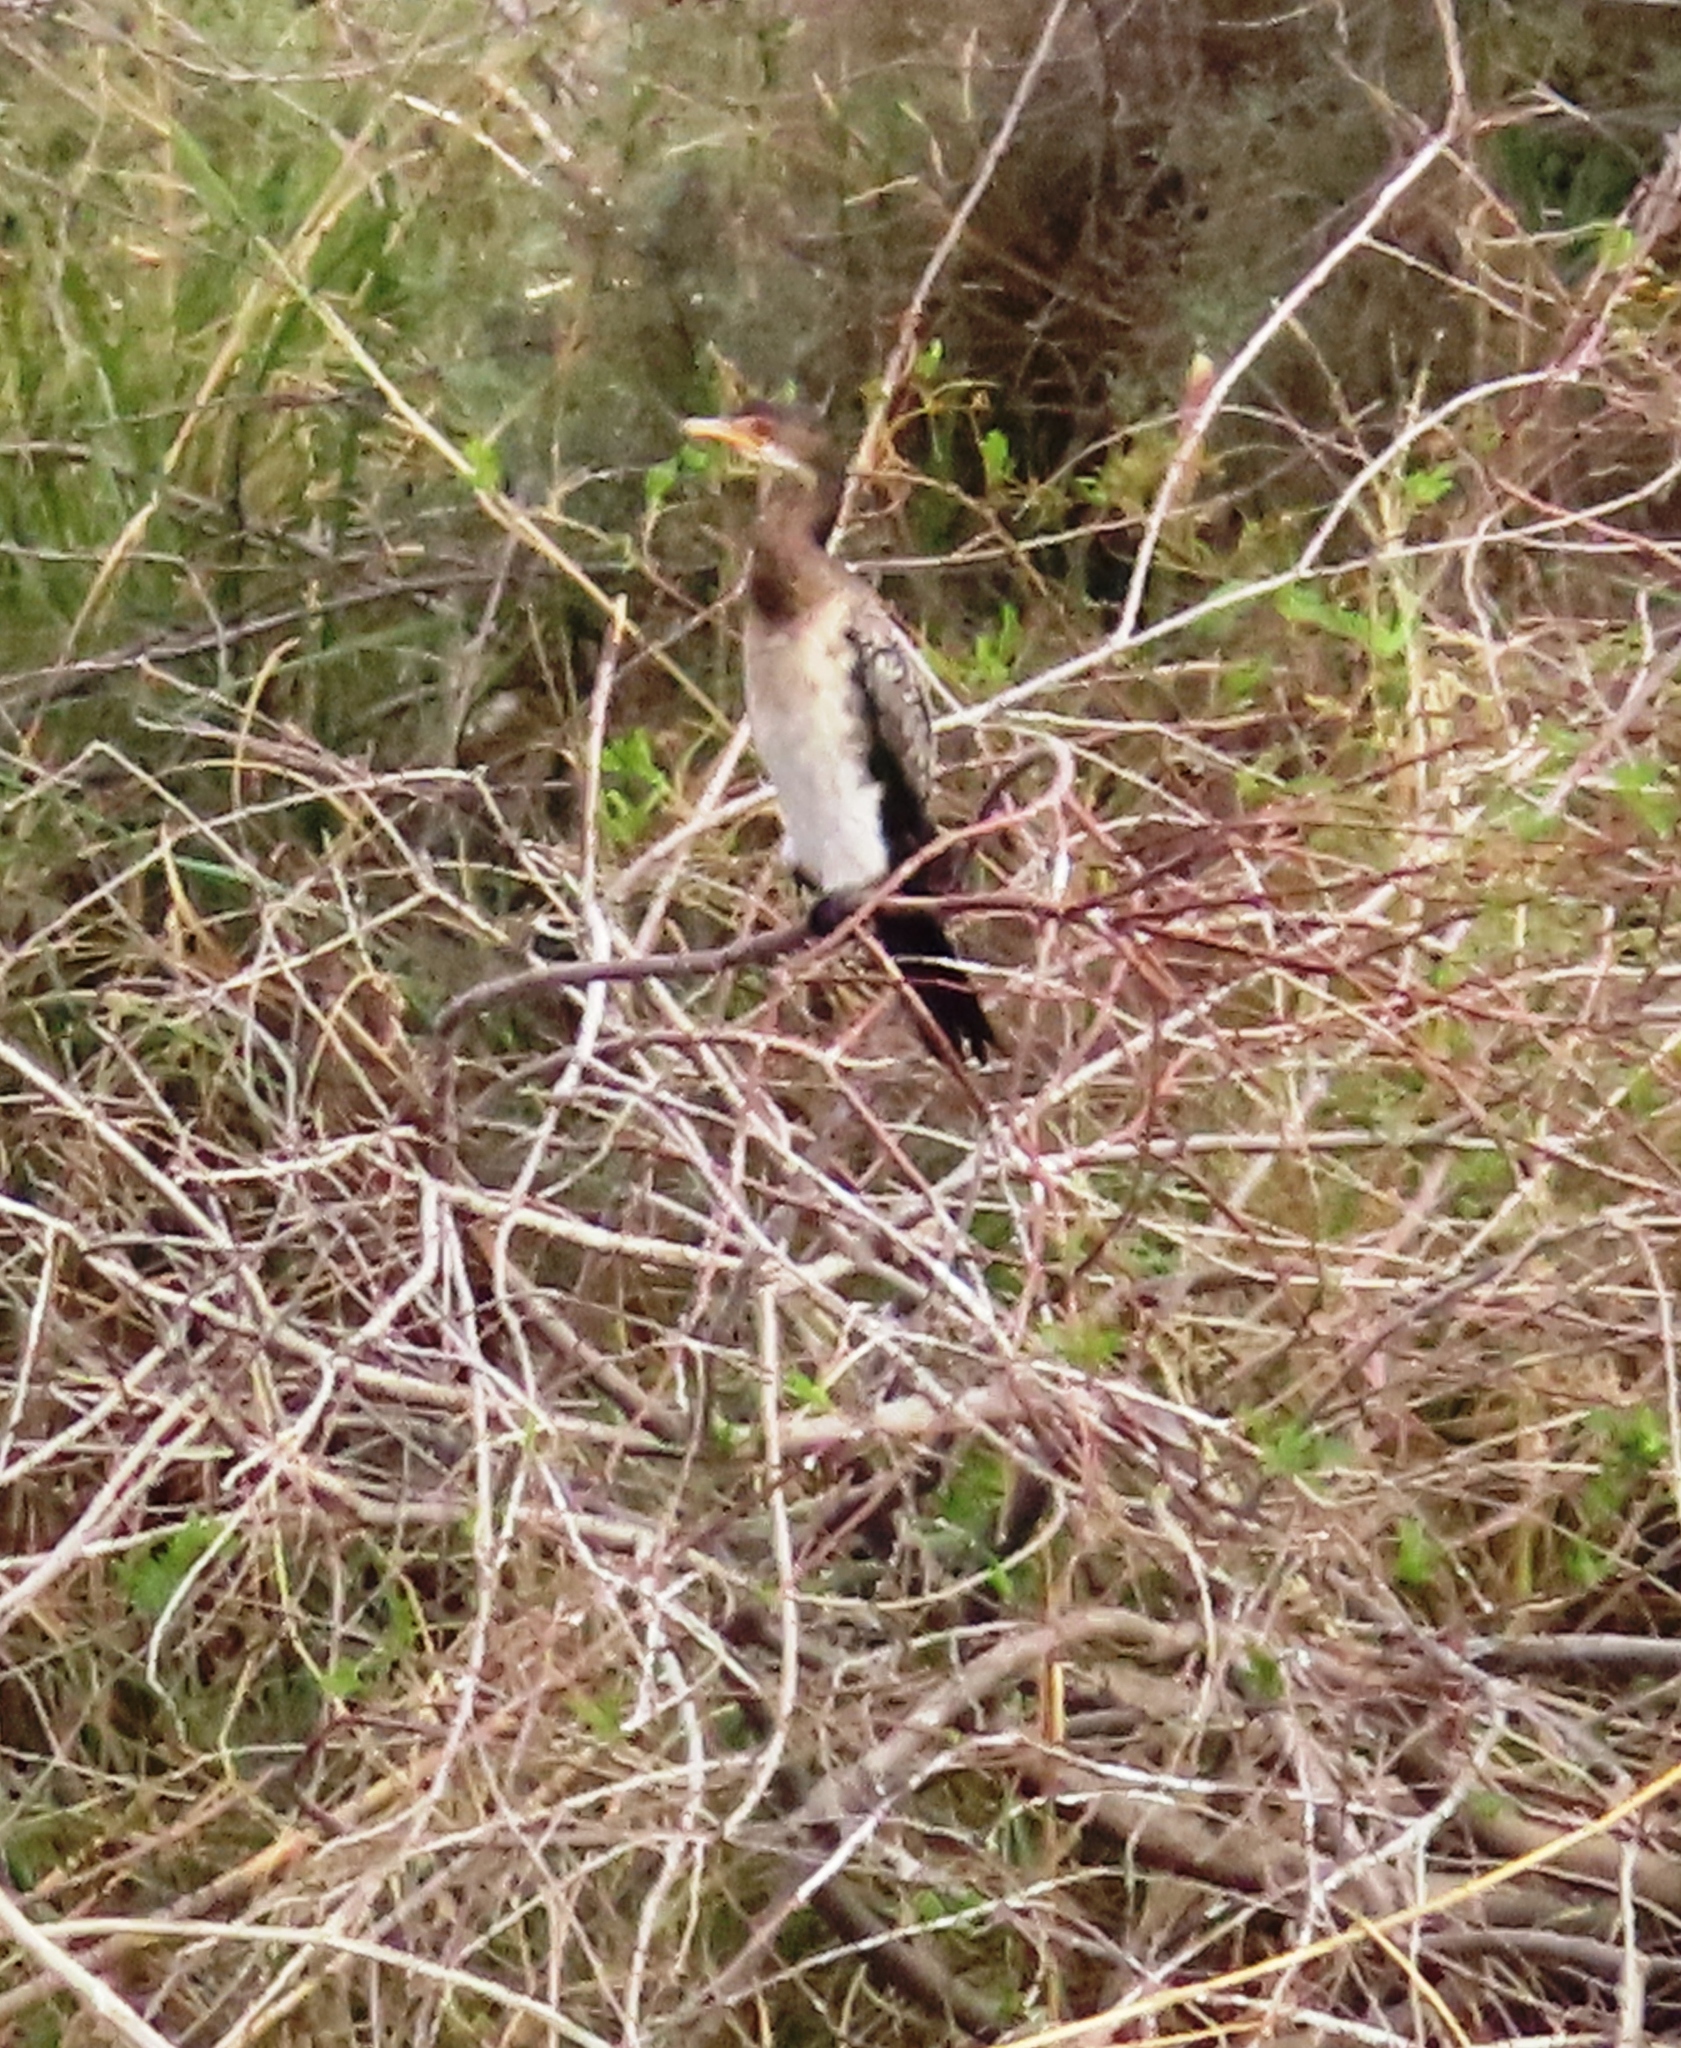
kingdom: Animalia
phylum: Chordata
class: Aves
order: Suliformes
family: Phalacrocoracidae
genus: Microcarbo
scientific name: Microcarbo africanus
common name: Long-tailed cormorant
